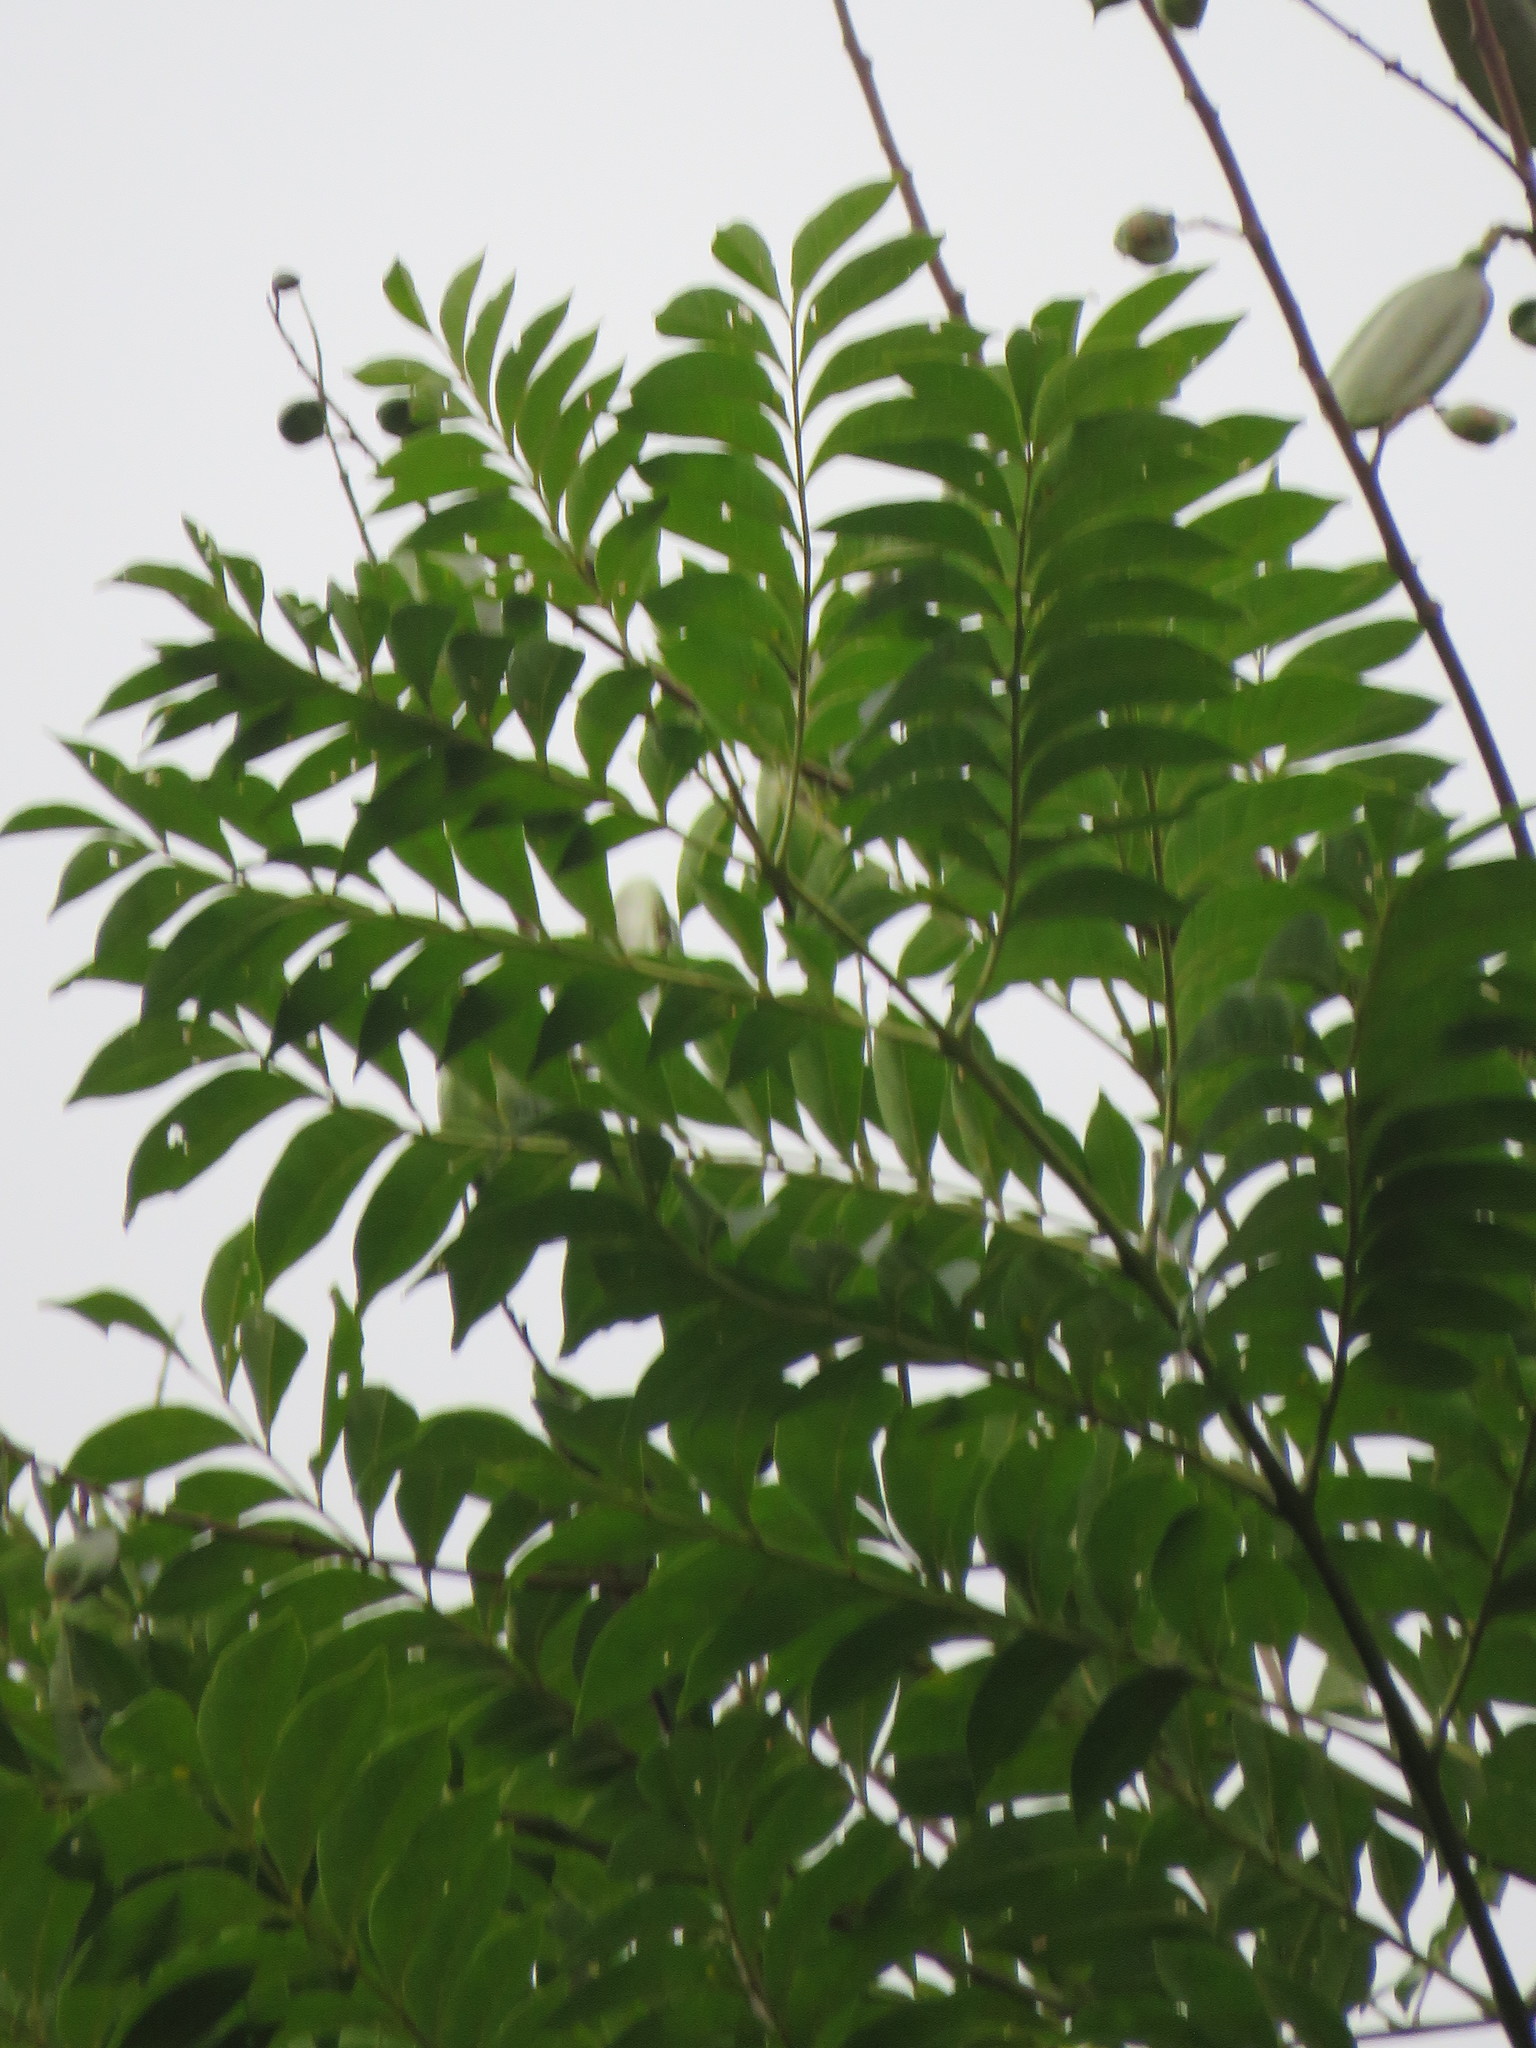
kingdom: Plantae
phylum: Tracheophyta
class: Magnoliopsida
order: Lamiales
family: Bignoniaceae
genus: Jacaranda
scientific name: Jacaranda copaia
